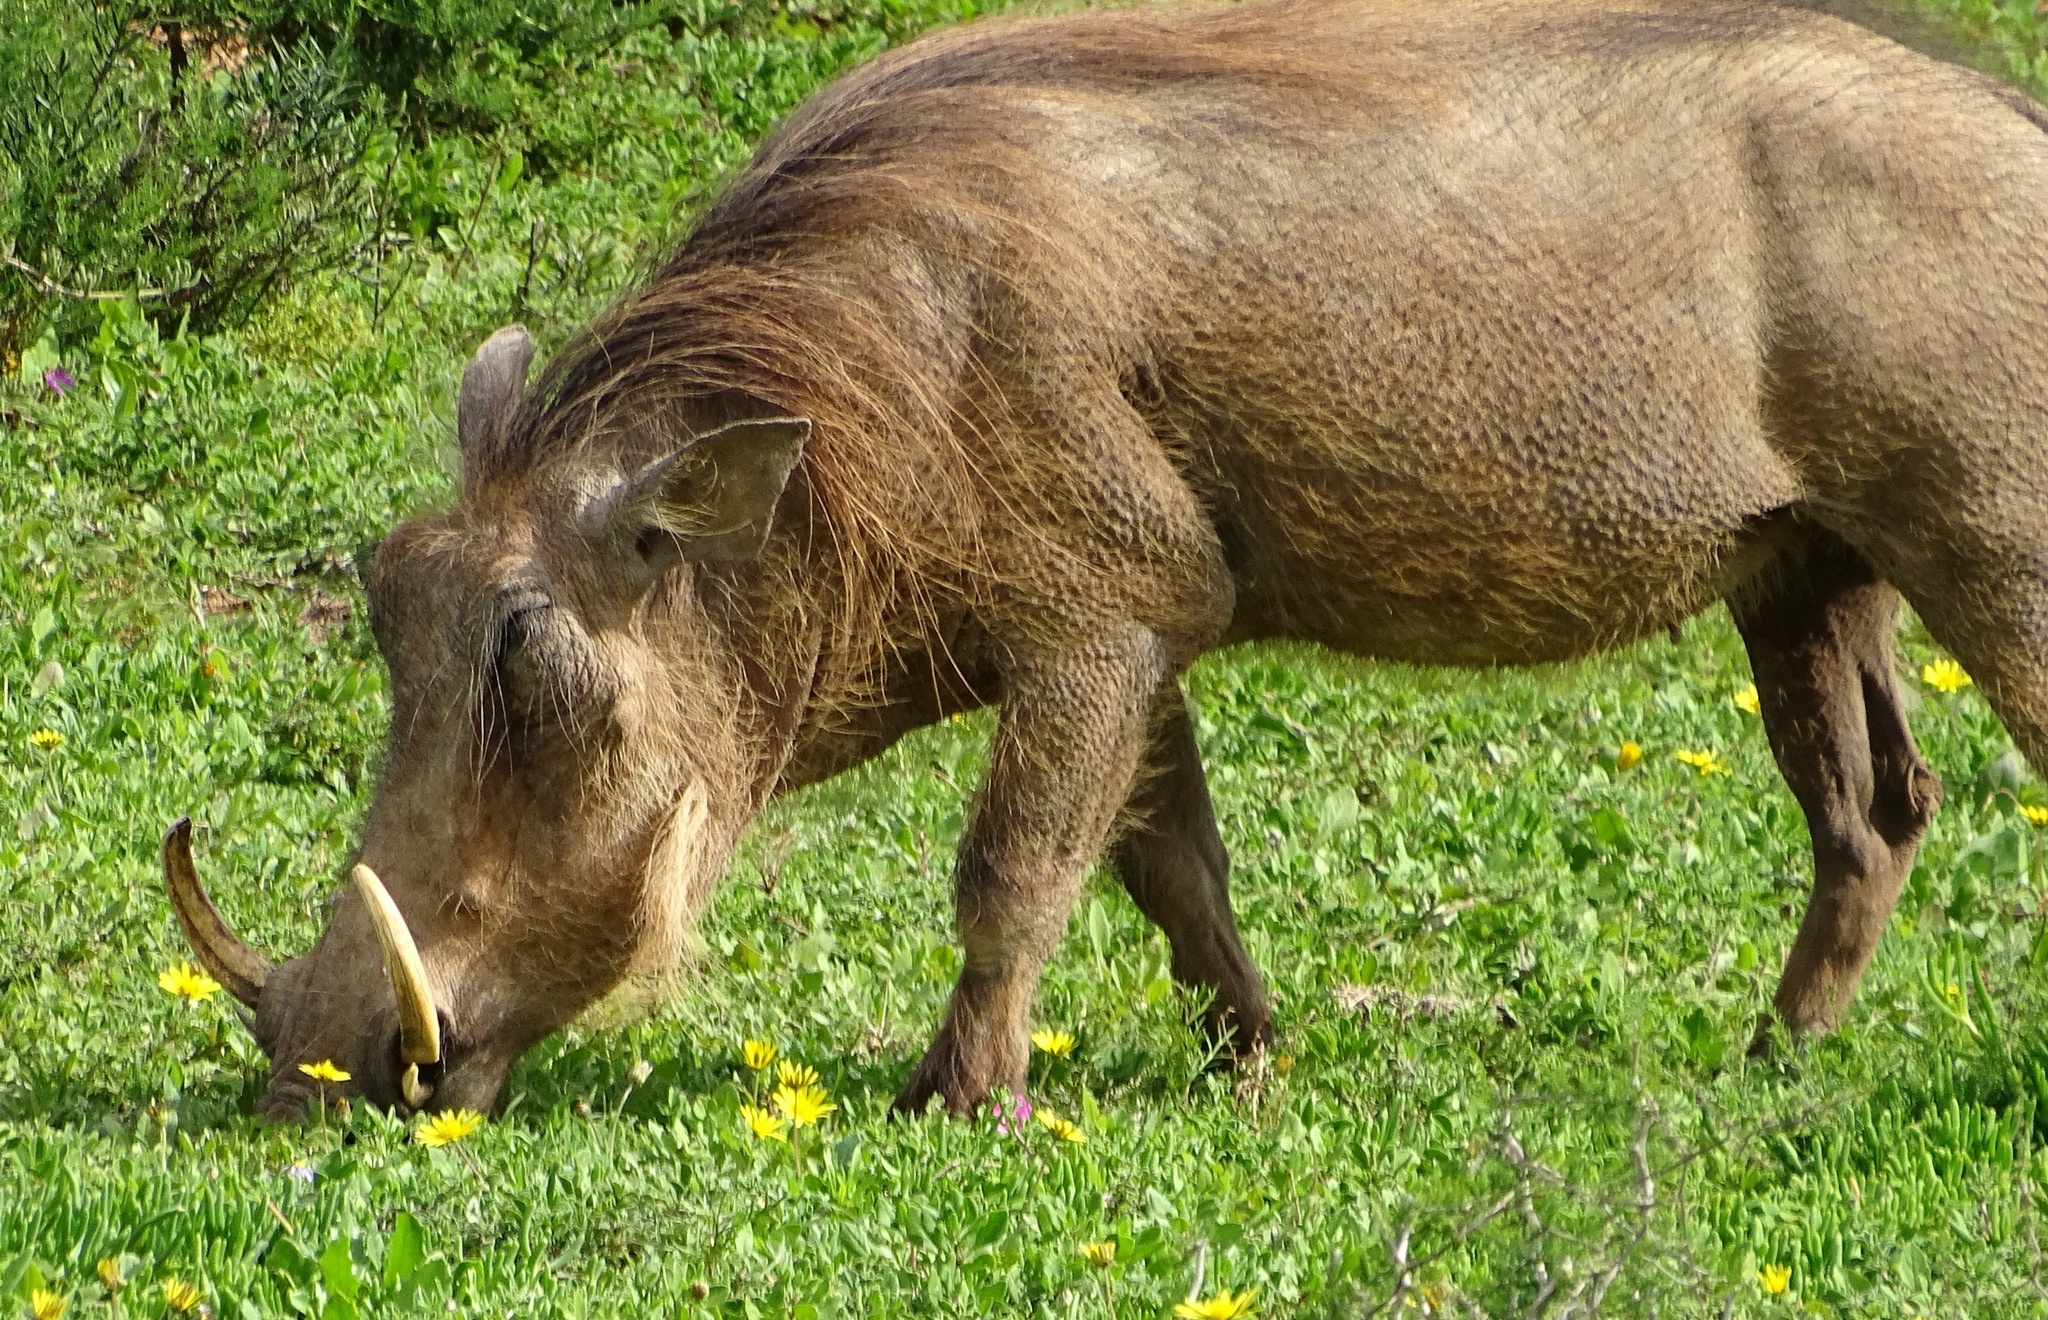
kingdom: Animalia
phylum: Chordata
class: Mammalia
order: Artiodactyla
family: Suidae
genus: Phacochoerus
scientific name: Phacochoerus africanus
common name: Common warthog
